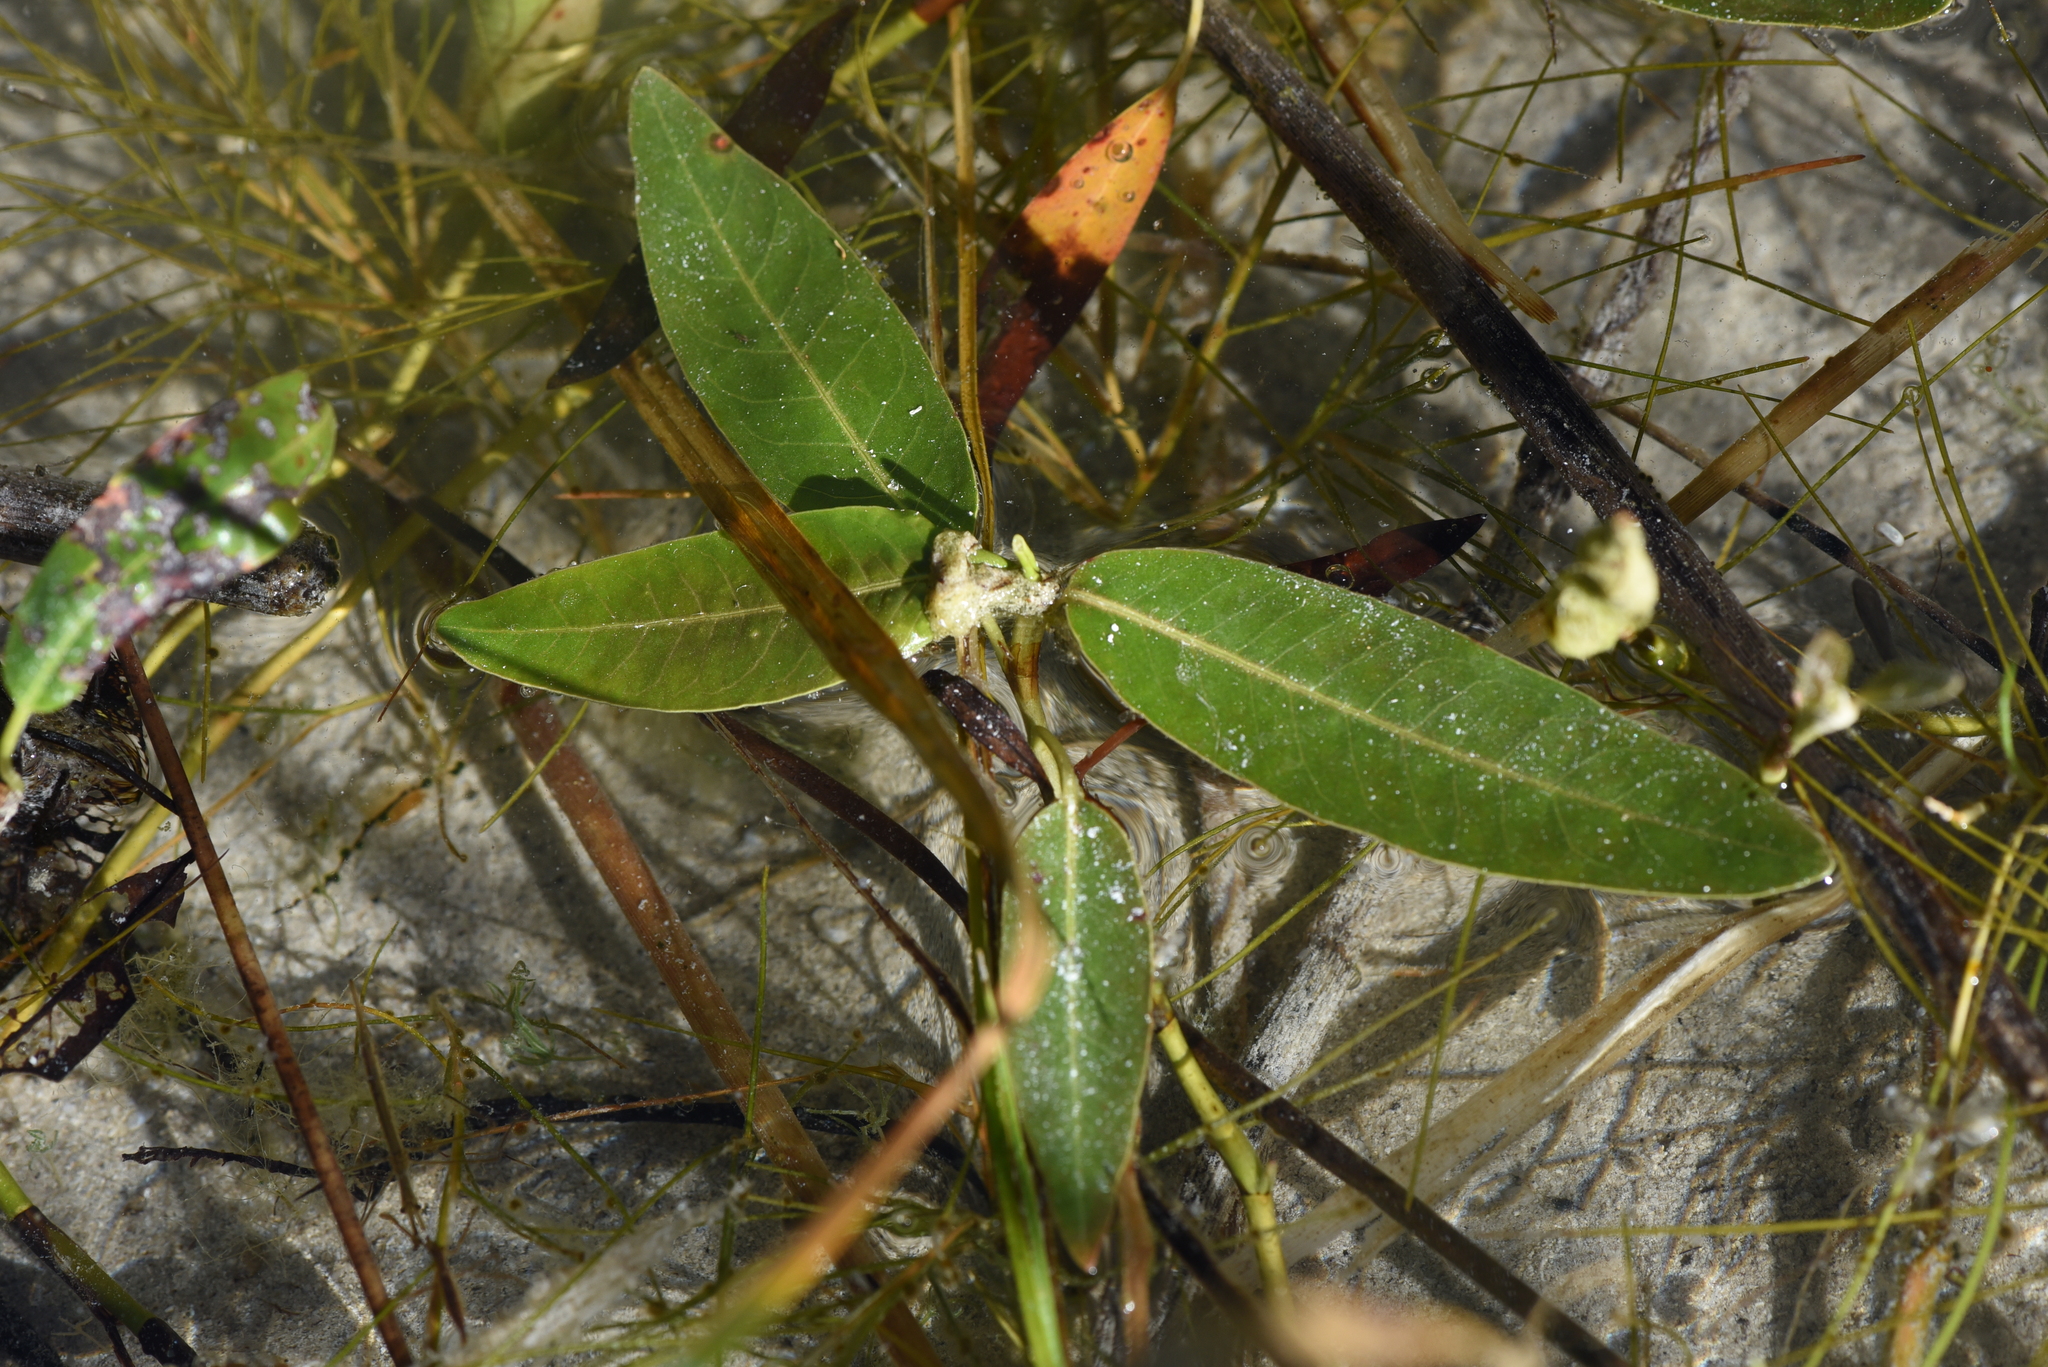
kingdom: Plantae
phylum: Tracheophyta
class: Magnoliopsida
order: Caryophyllales
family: Polygonaceae
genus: Persicaria
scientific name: Persicaria amphibia
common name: Amphibious bistort
